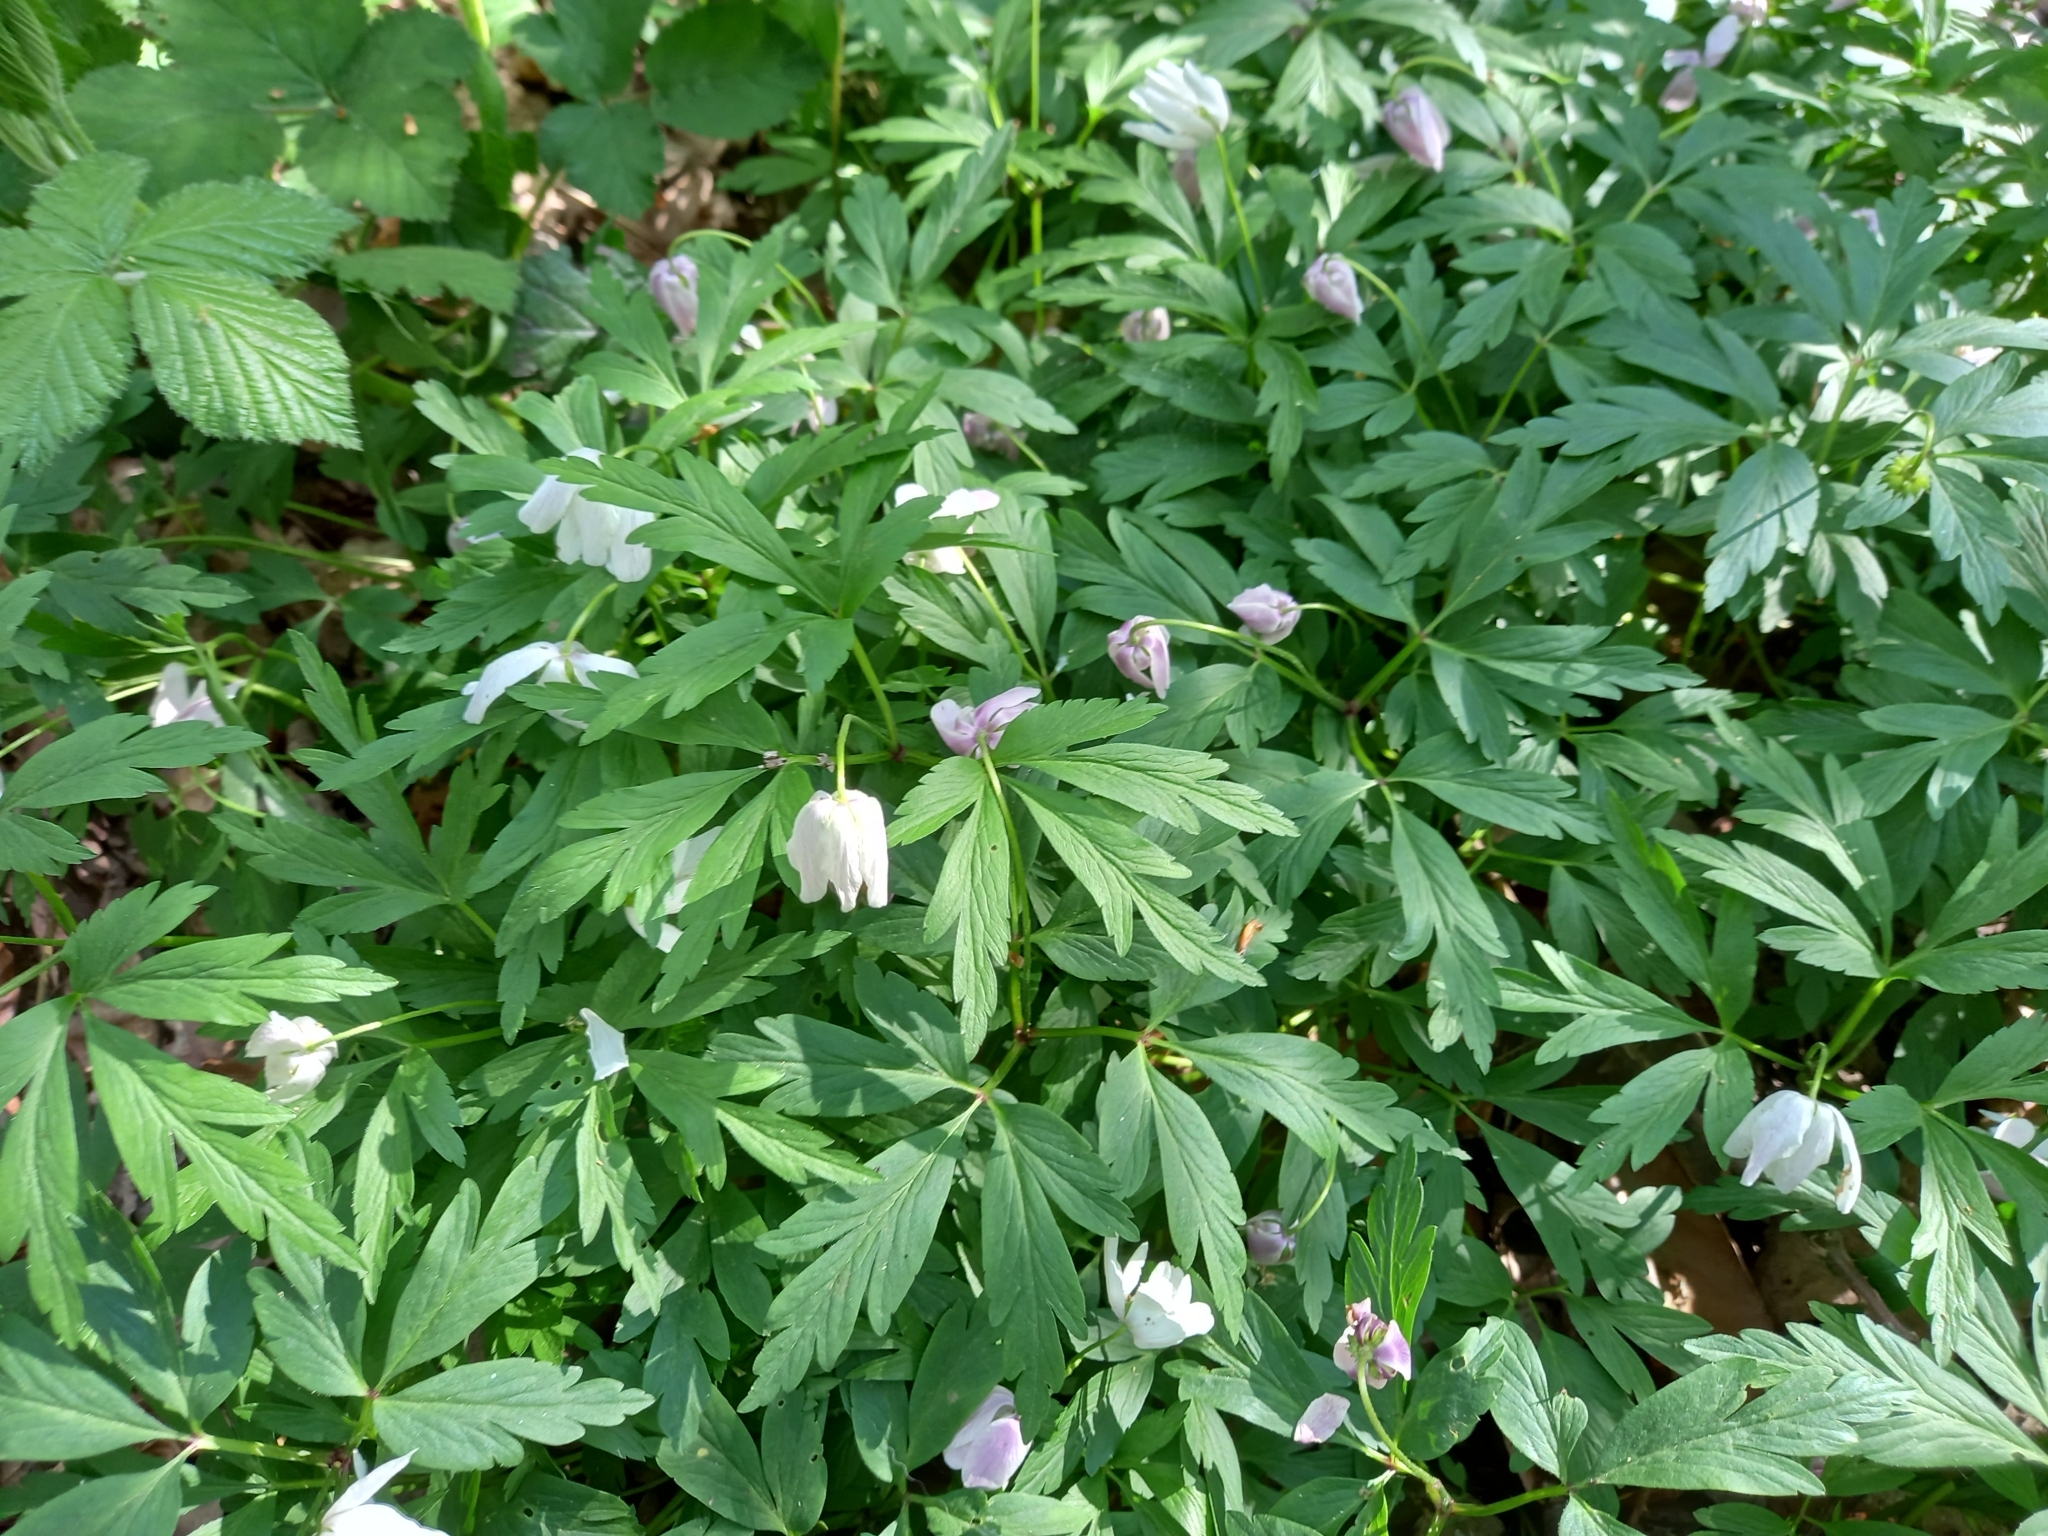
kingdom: Plantae
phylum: Tracheophyta
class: Magnoliopsida
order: Ranunculales
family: Ranunculaceae
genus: Anemone
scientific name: Anemone nemorosa
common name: Wood anemone
